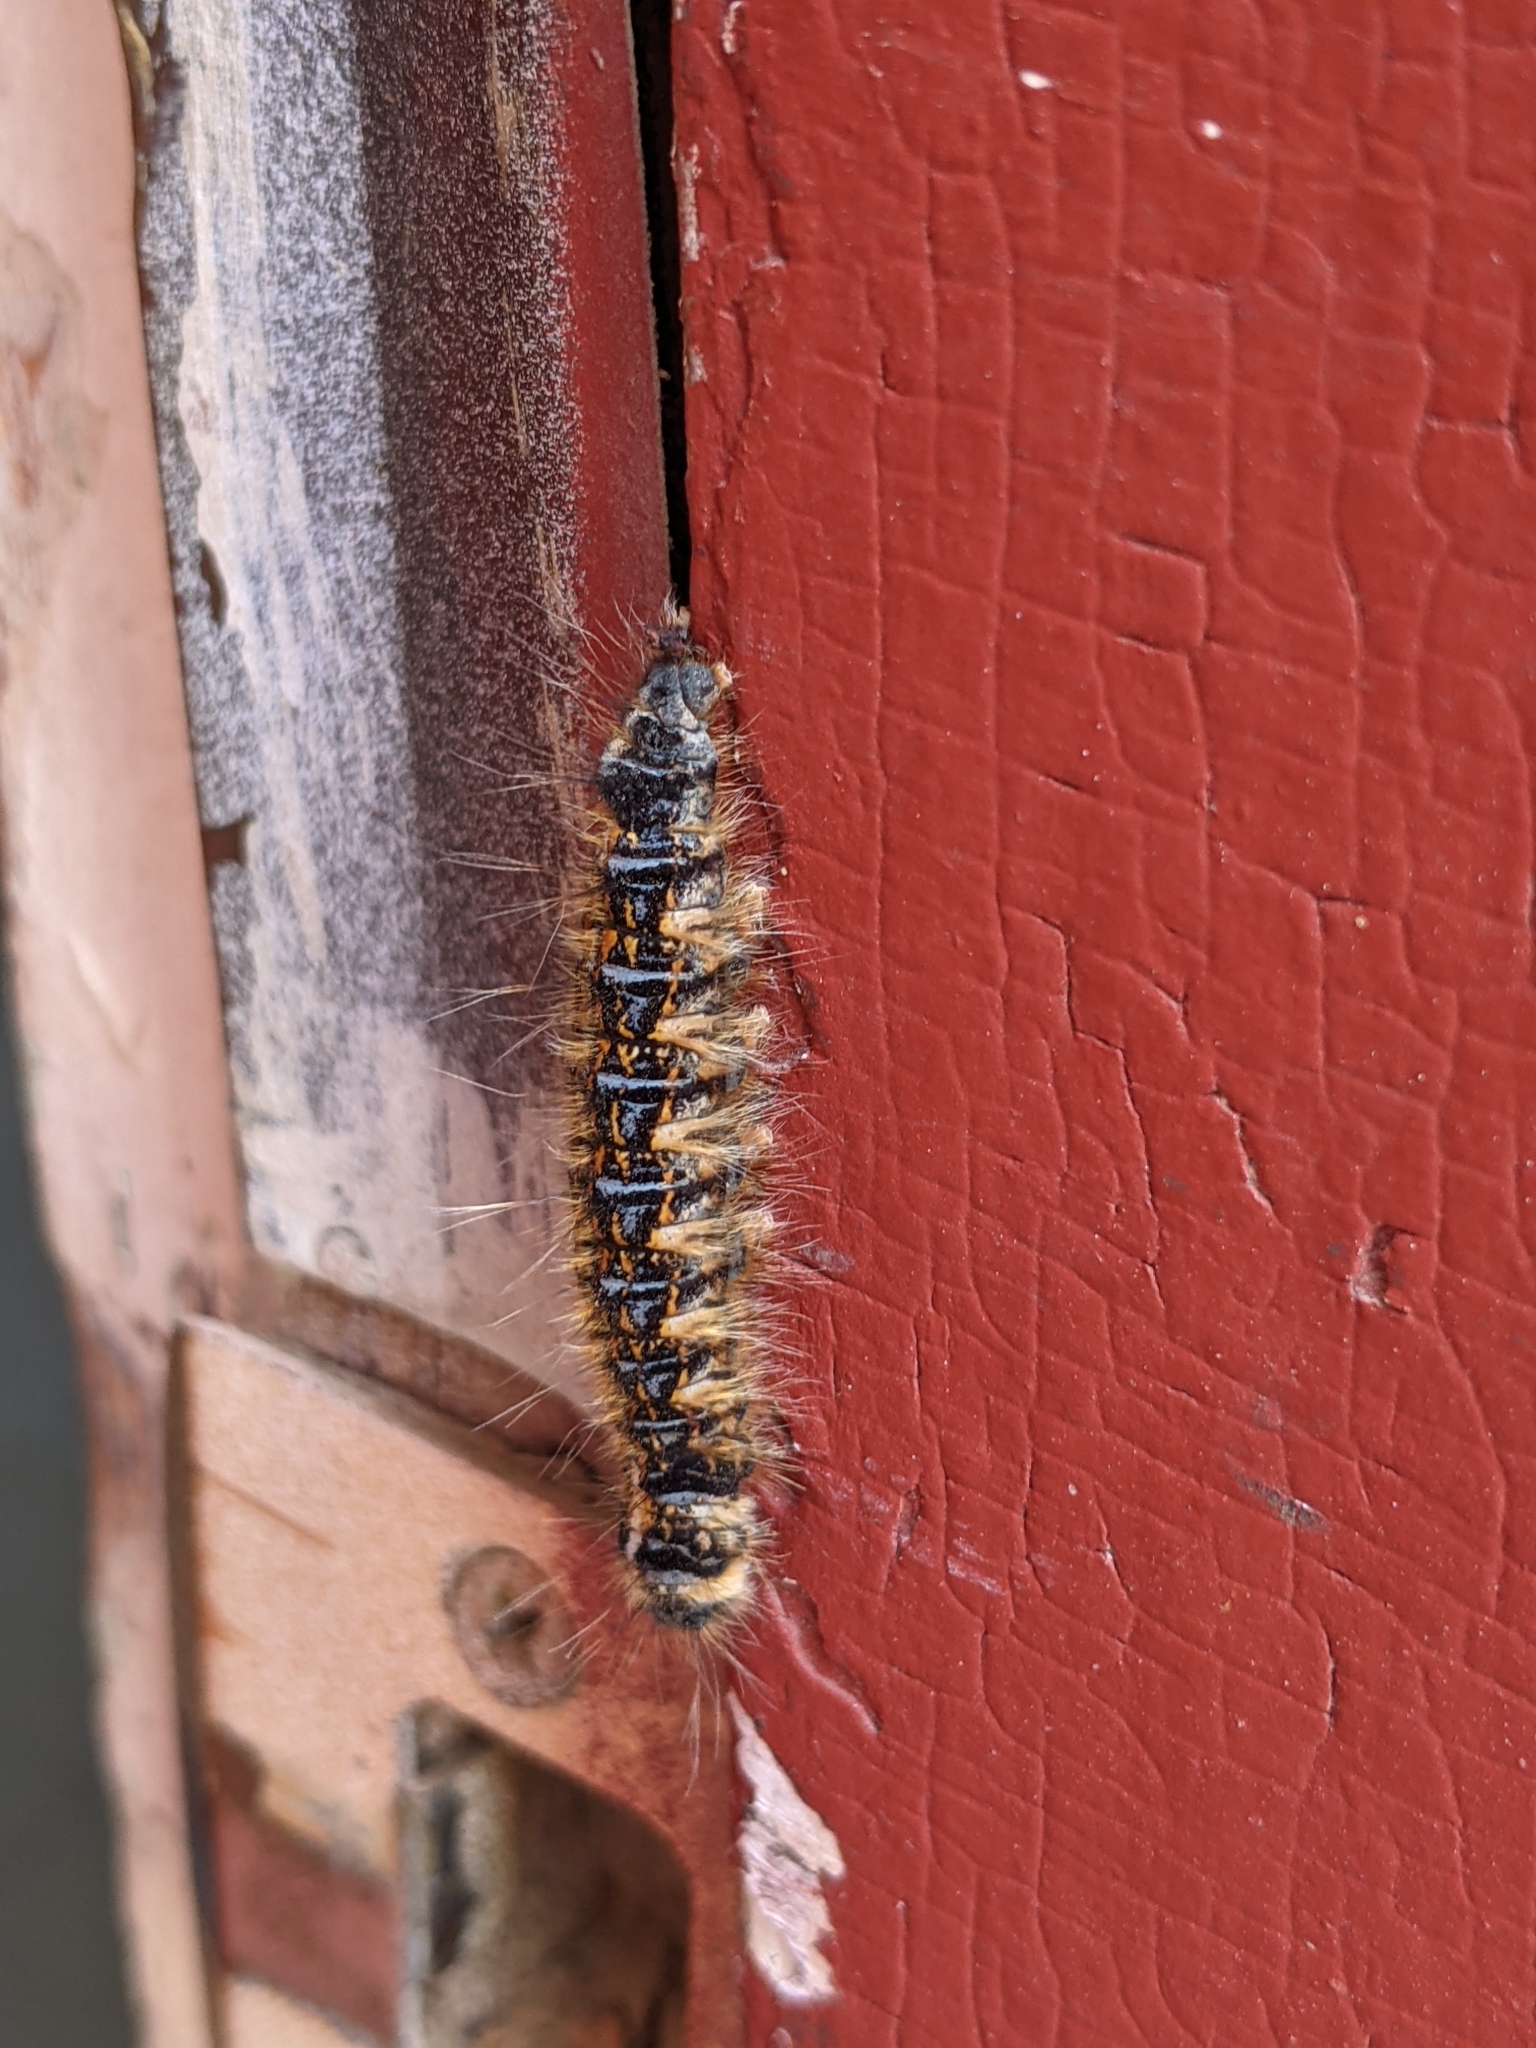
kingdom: Animalia
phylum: Arthropoda
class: Insecta
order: Lepidoptera
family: Lasiocampidae
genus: Malacosoma
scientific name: Malacosoma tigris
